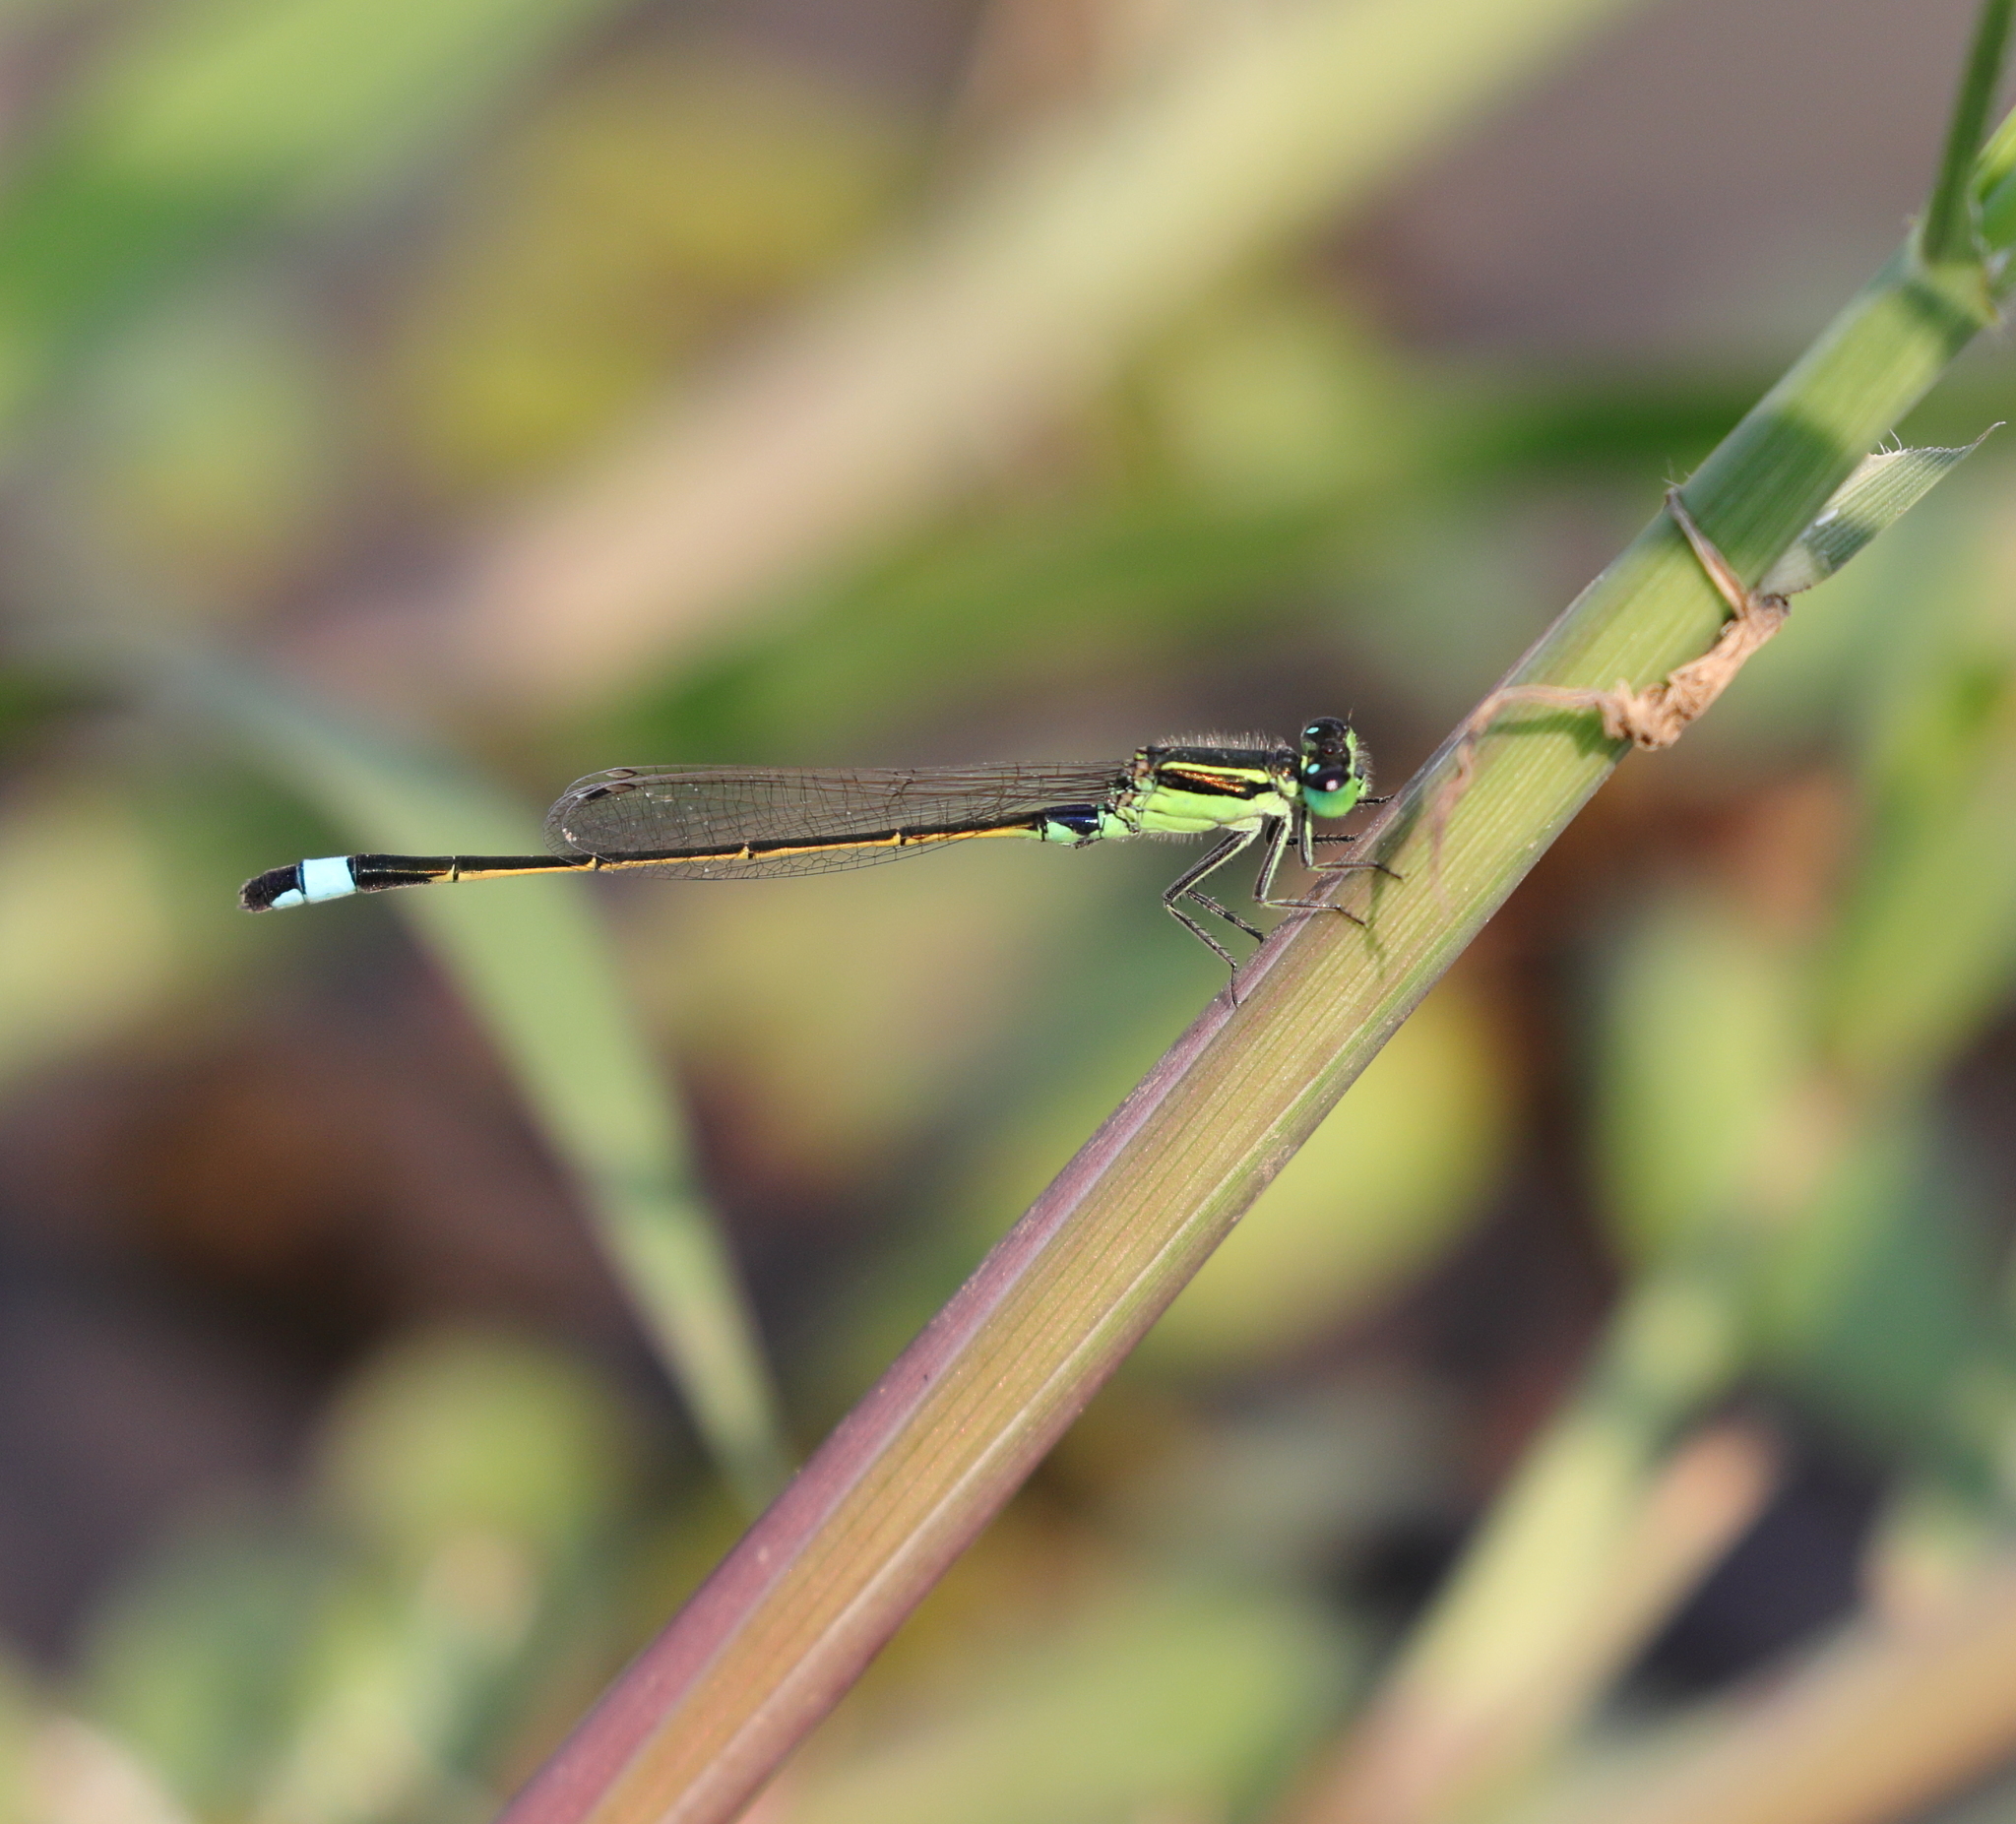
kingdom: Animalia
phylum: Arthropoda
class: Insecta
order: Odonata
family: Coenagrionidae
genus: Ischnura
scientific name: Ischnura senegalensis
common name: Tropical bluetail
